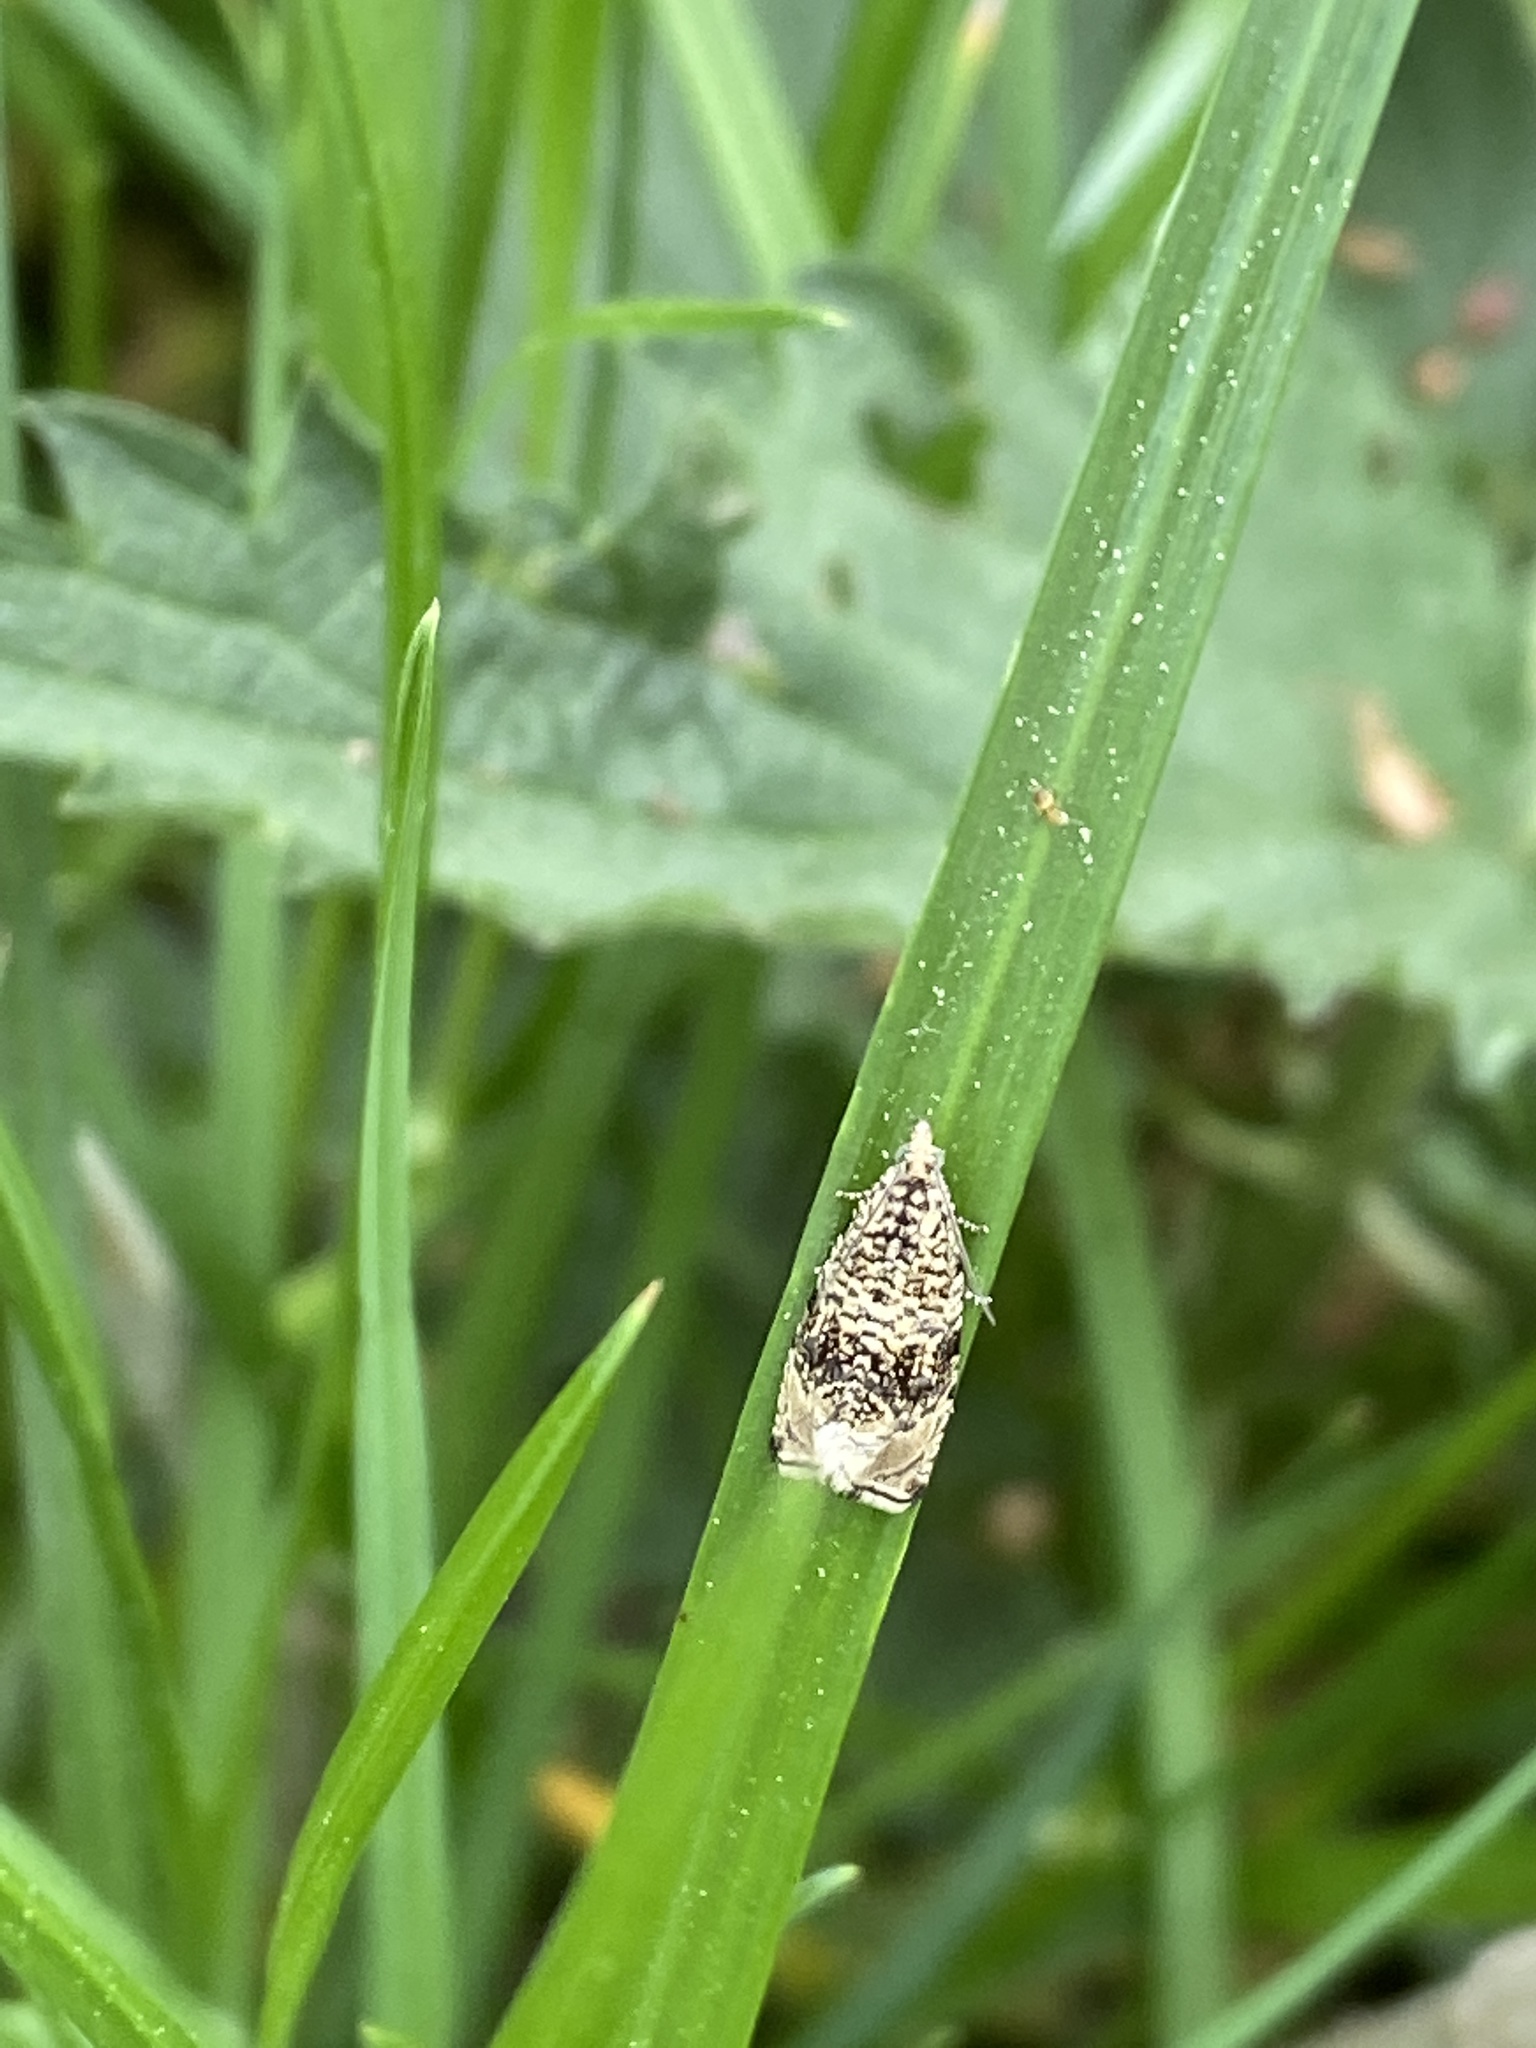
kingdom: Animalia
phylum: Arthropoda
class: Insecta
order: Lepidoptera
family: Tortricidae
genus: Syricoris
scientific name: Syricoris lacunana
